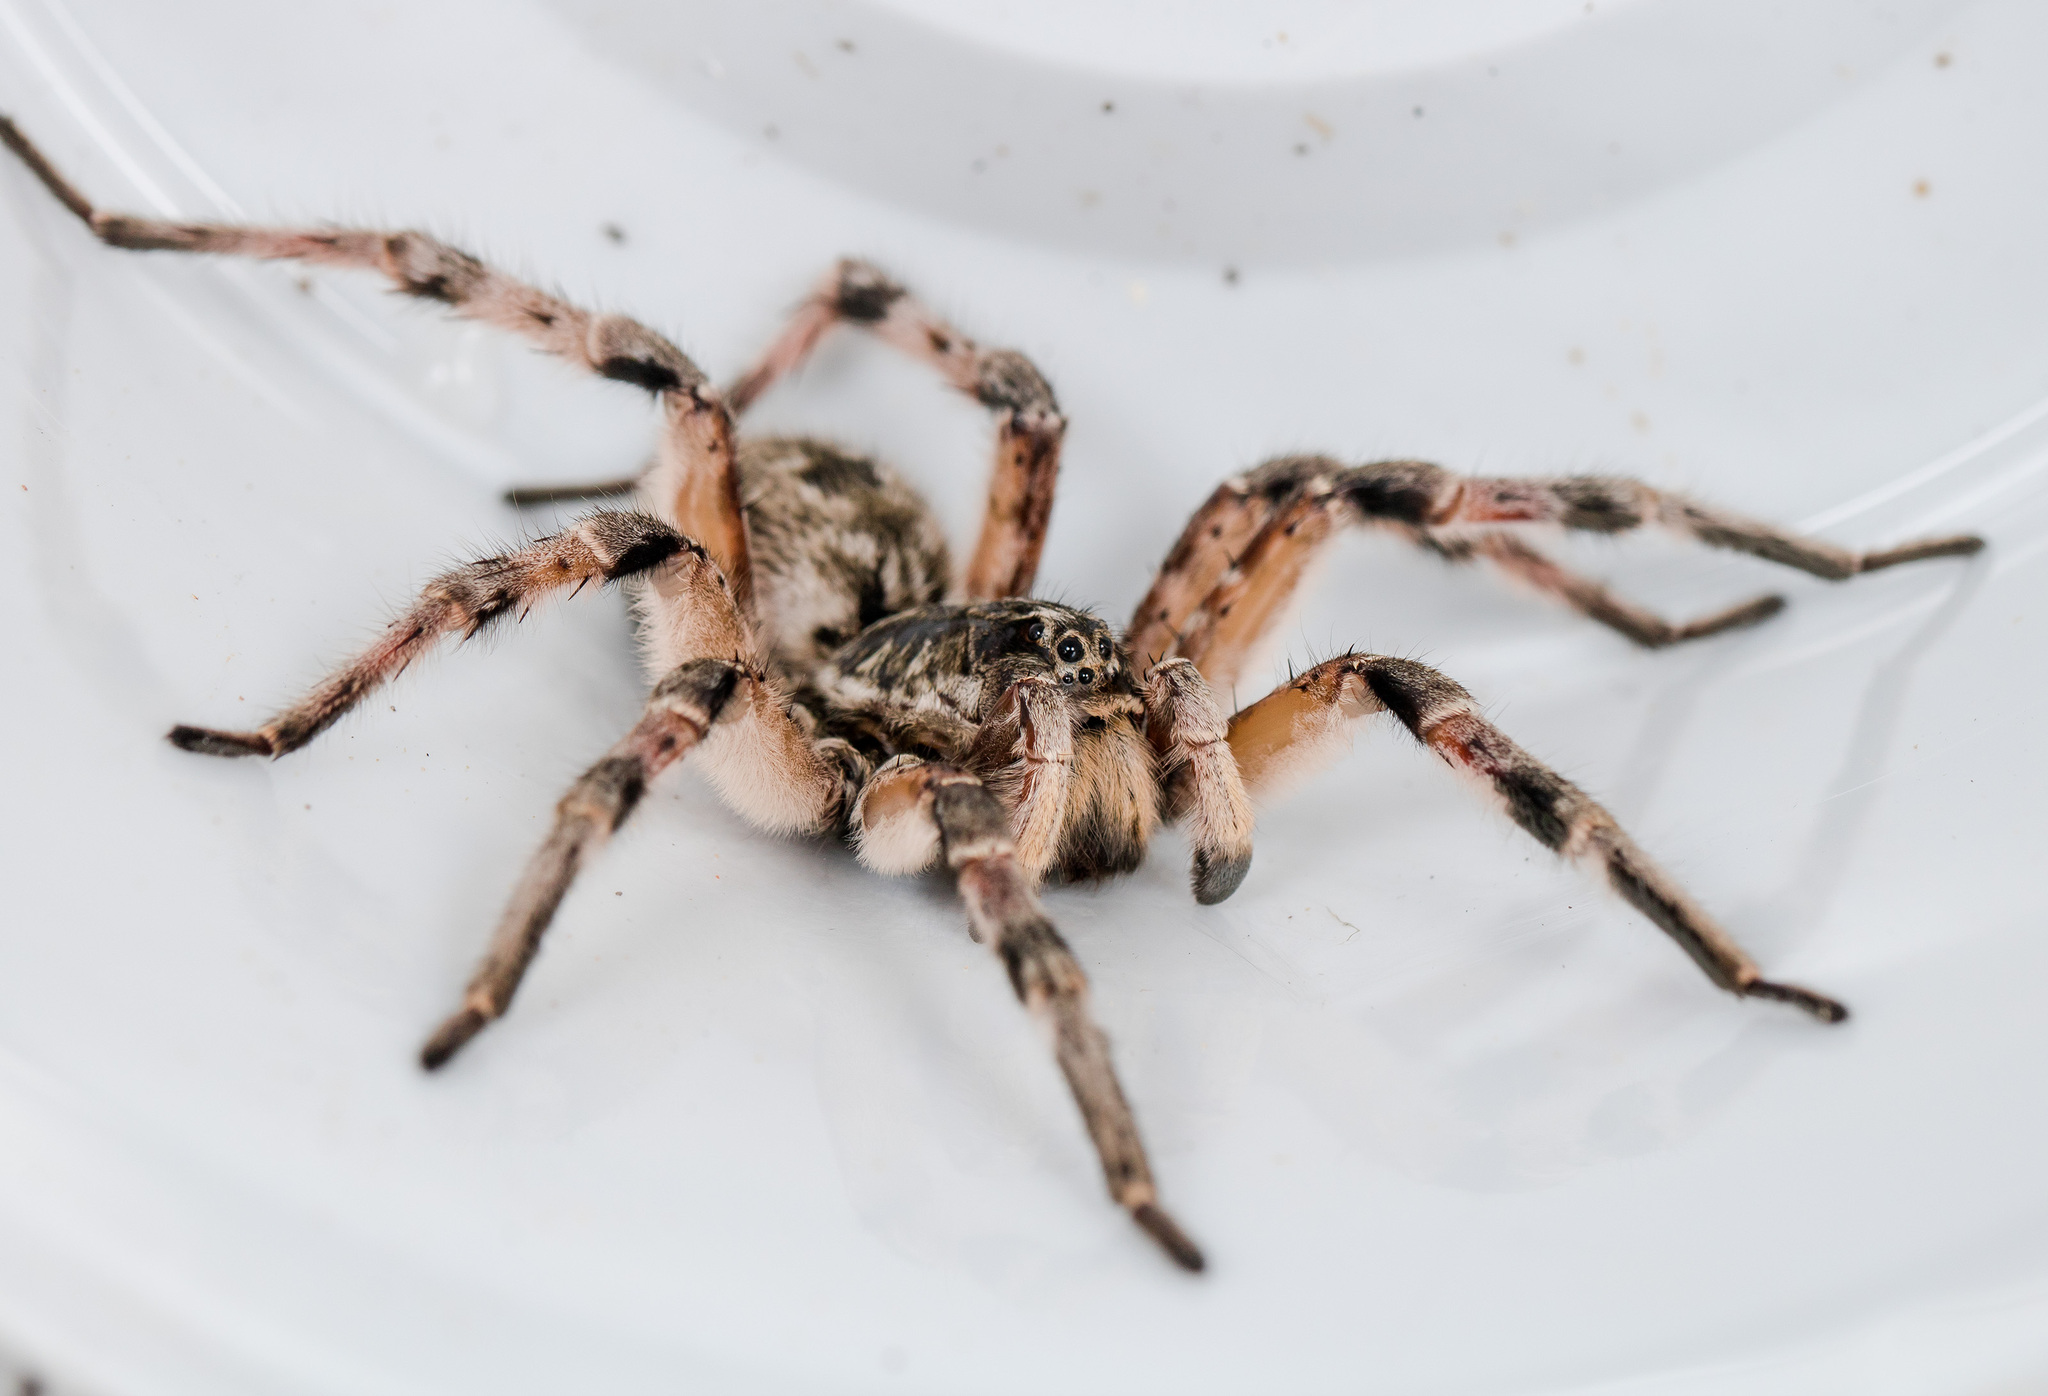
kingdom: Animalia
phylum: Arthropoda
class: Arachnida
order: Araneae
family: Lycosidae
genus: Lycosa
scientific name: Lycosa singoriensis
